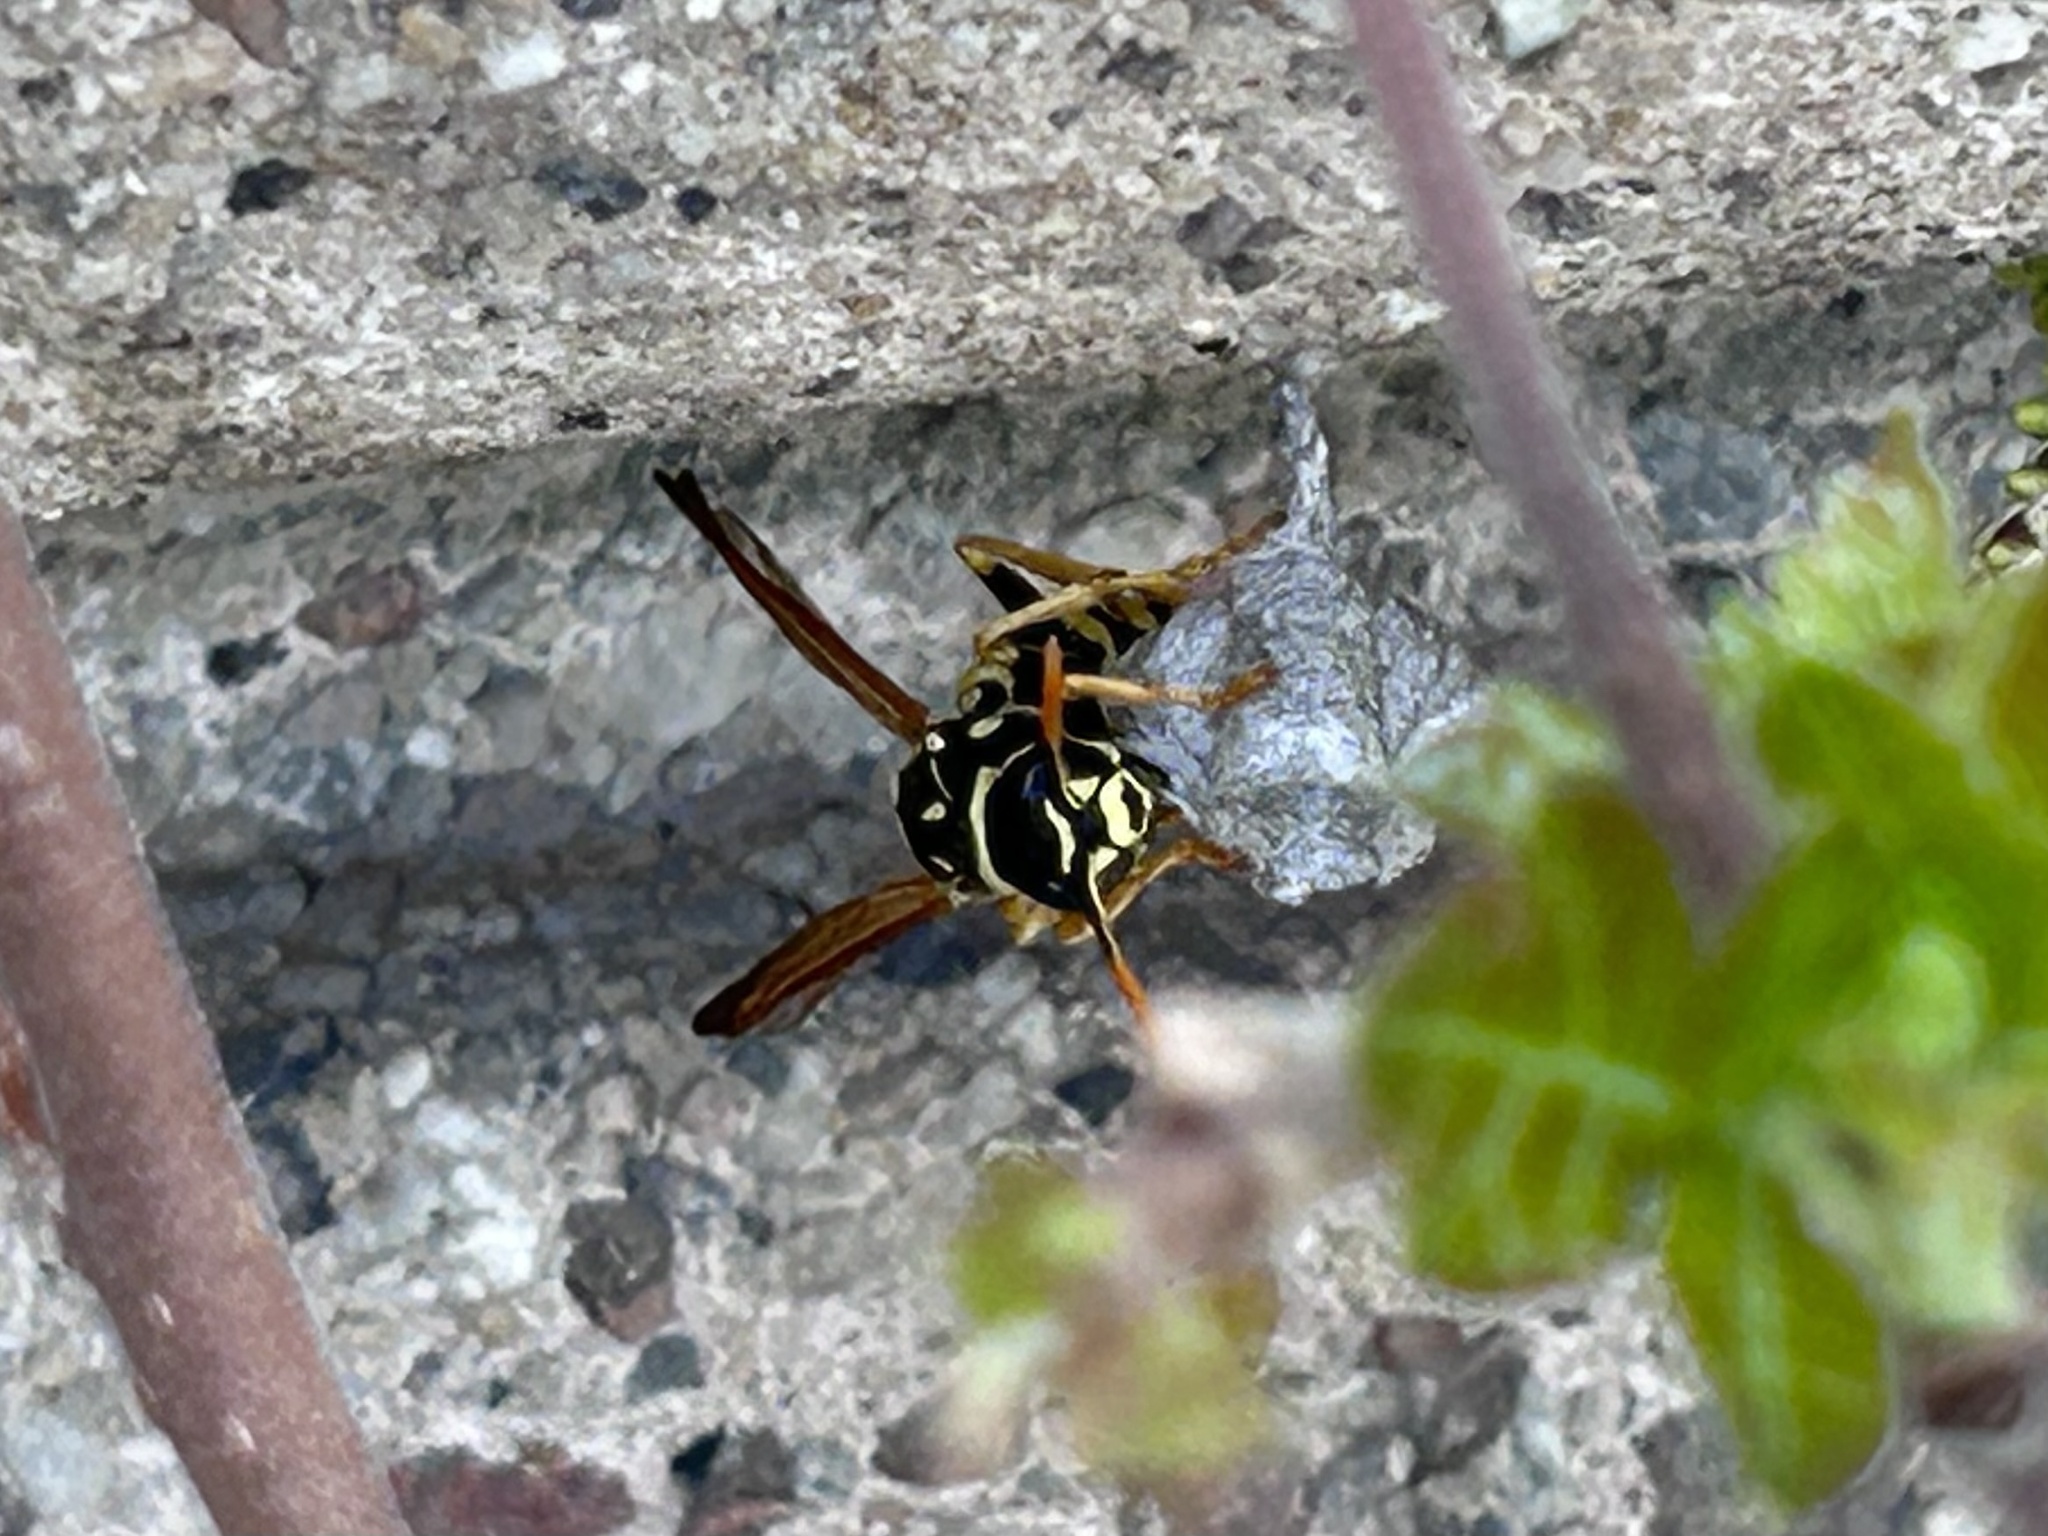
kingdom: Animalia
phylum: Arthropoda
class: Insecta
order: Hymenoptera
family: Eumenidae
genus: Polistes
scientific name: Polistes dominula
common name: Paper wasp
